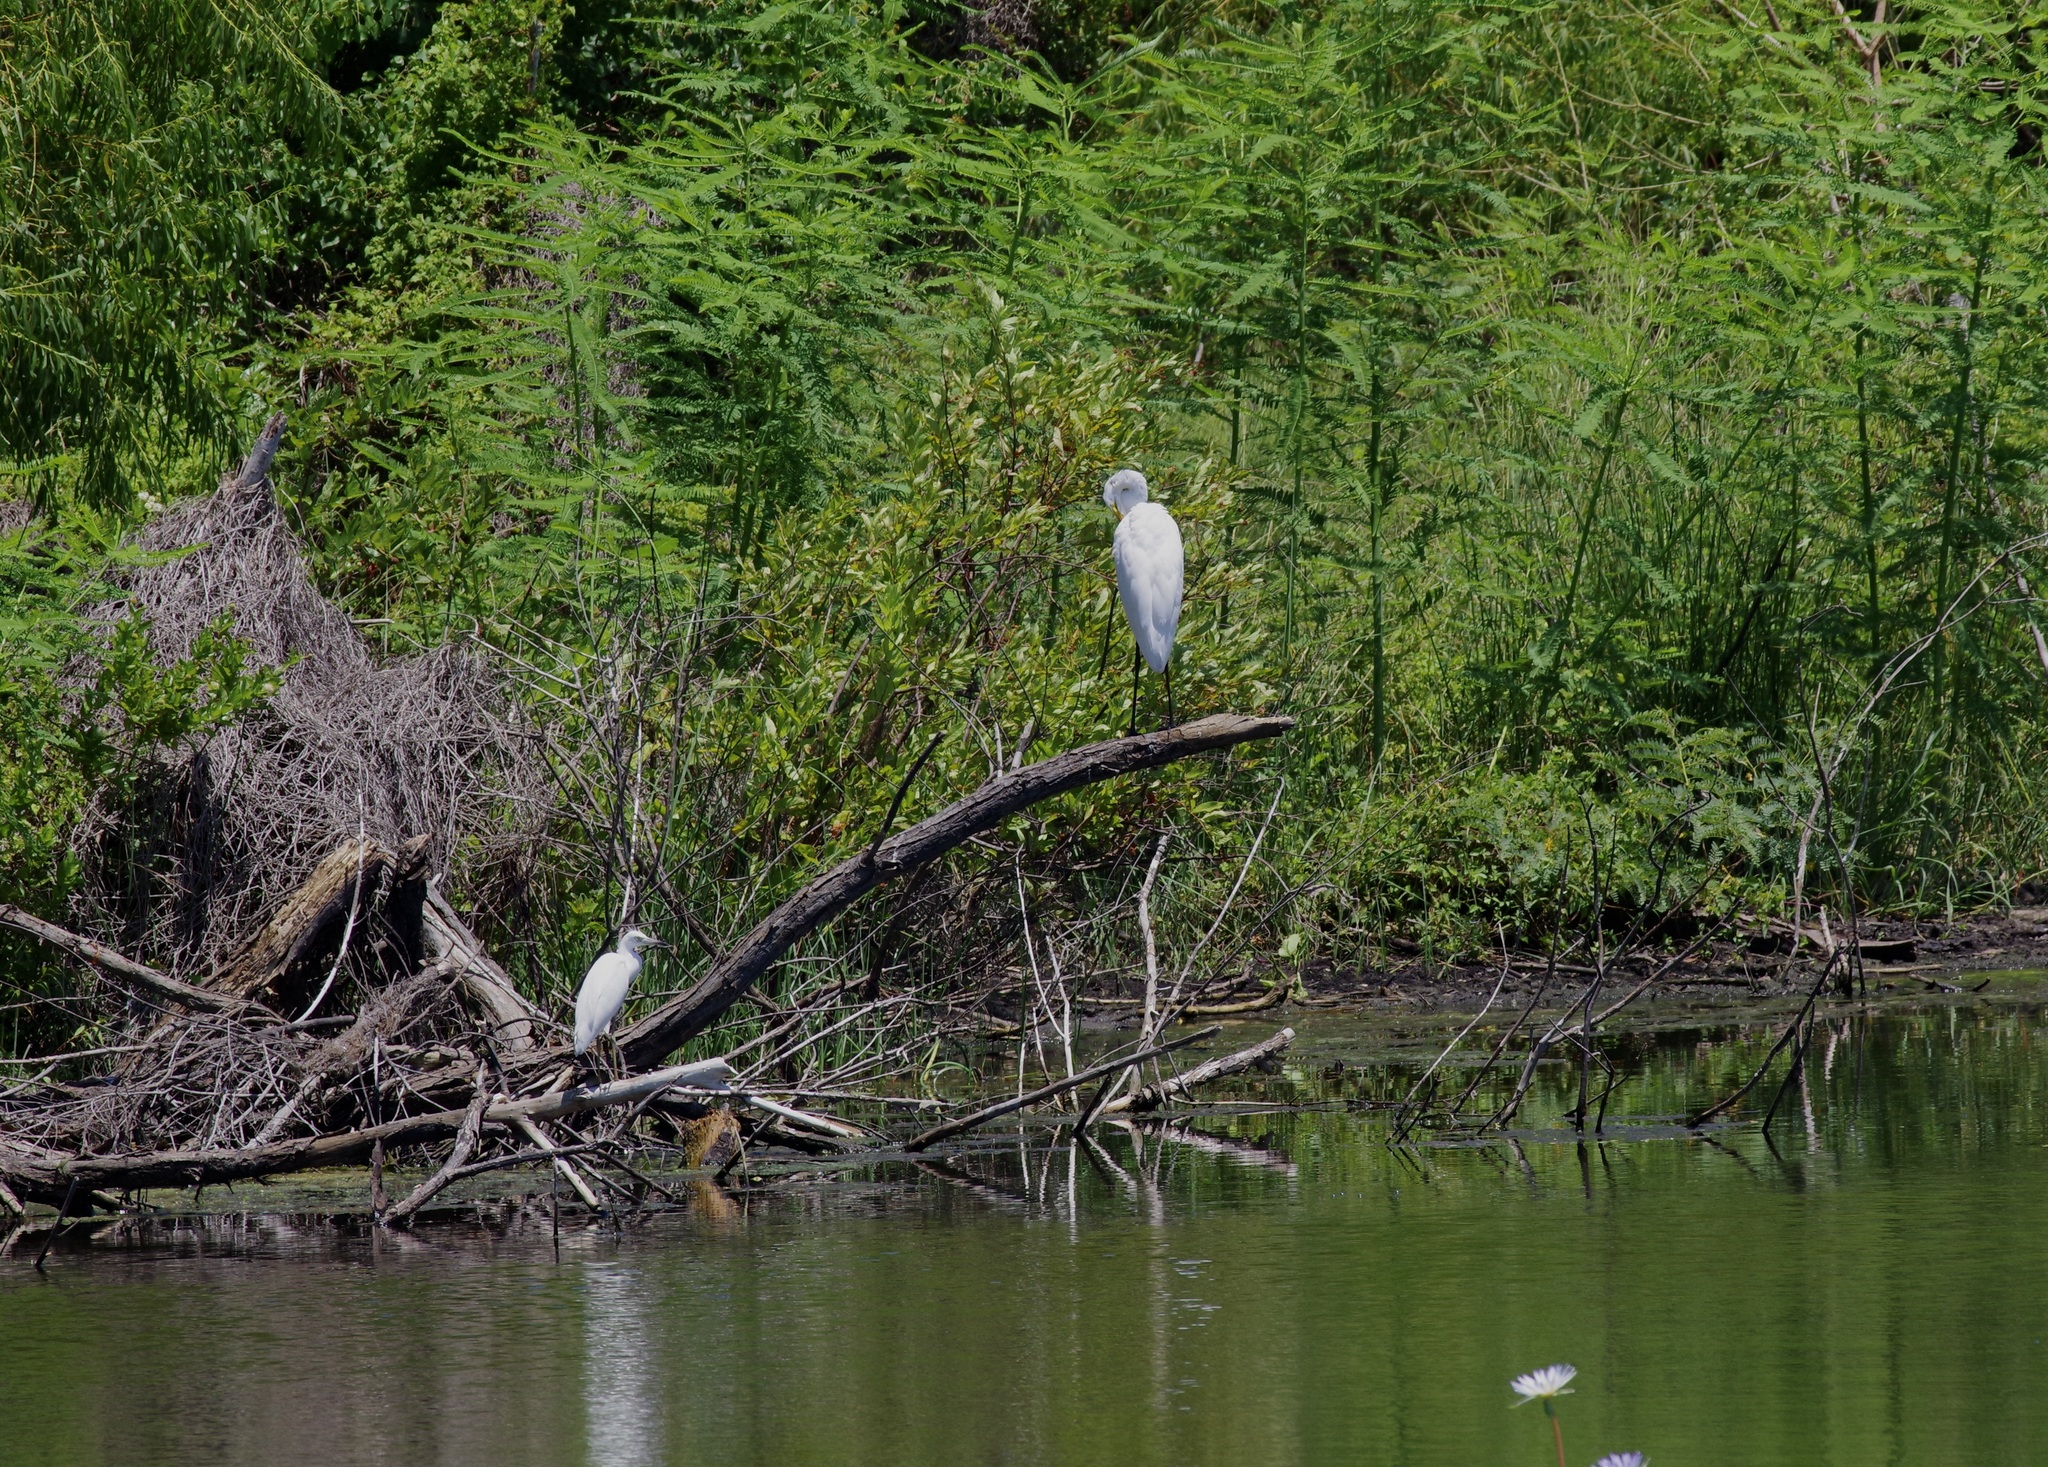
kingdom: Animalia
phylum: Chordata
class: Aves
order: Pelecaniformes
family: Ardeidae
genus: Ardea
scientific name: Ardea alba
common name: Great egret
